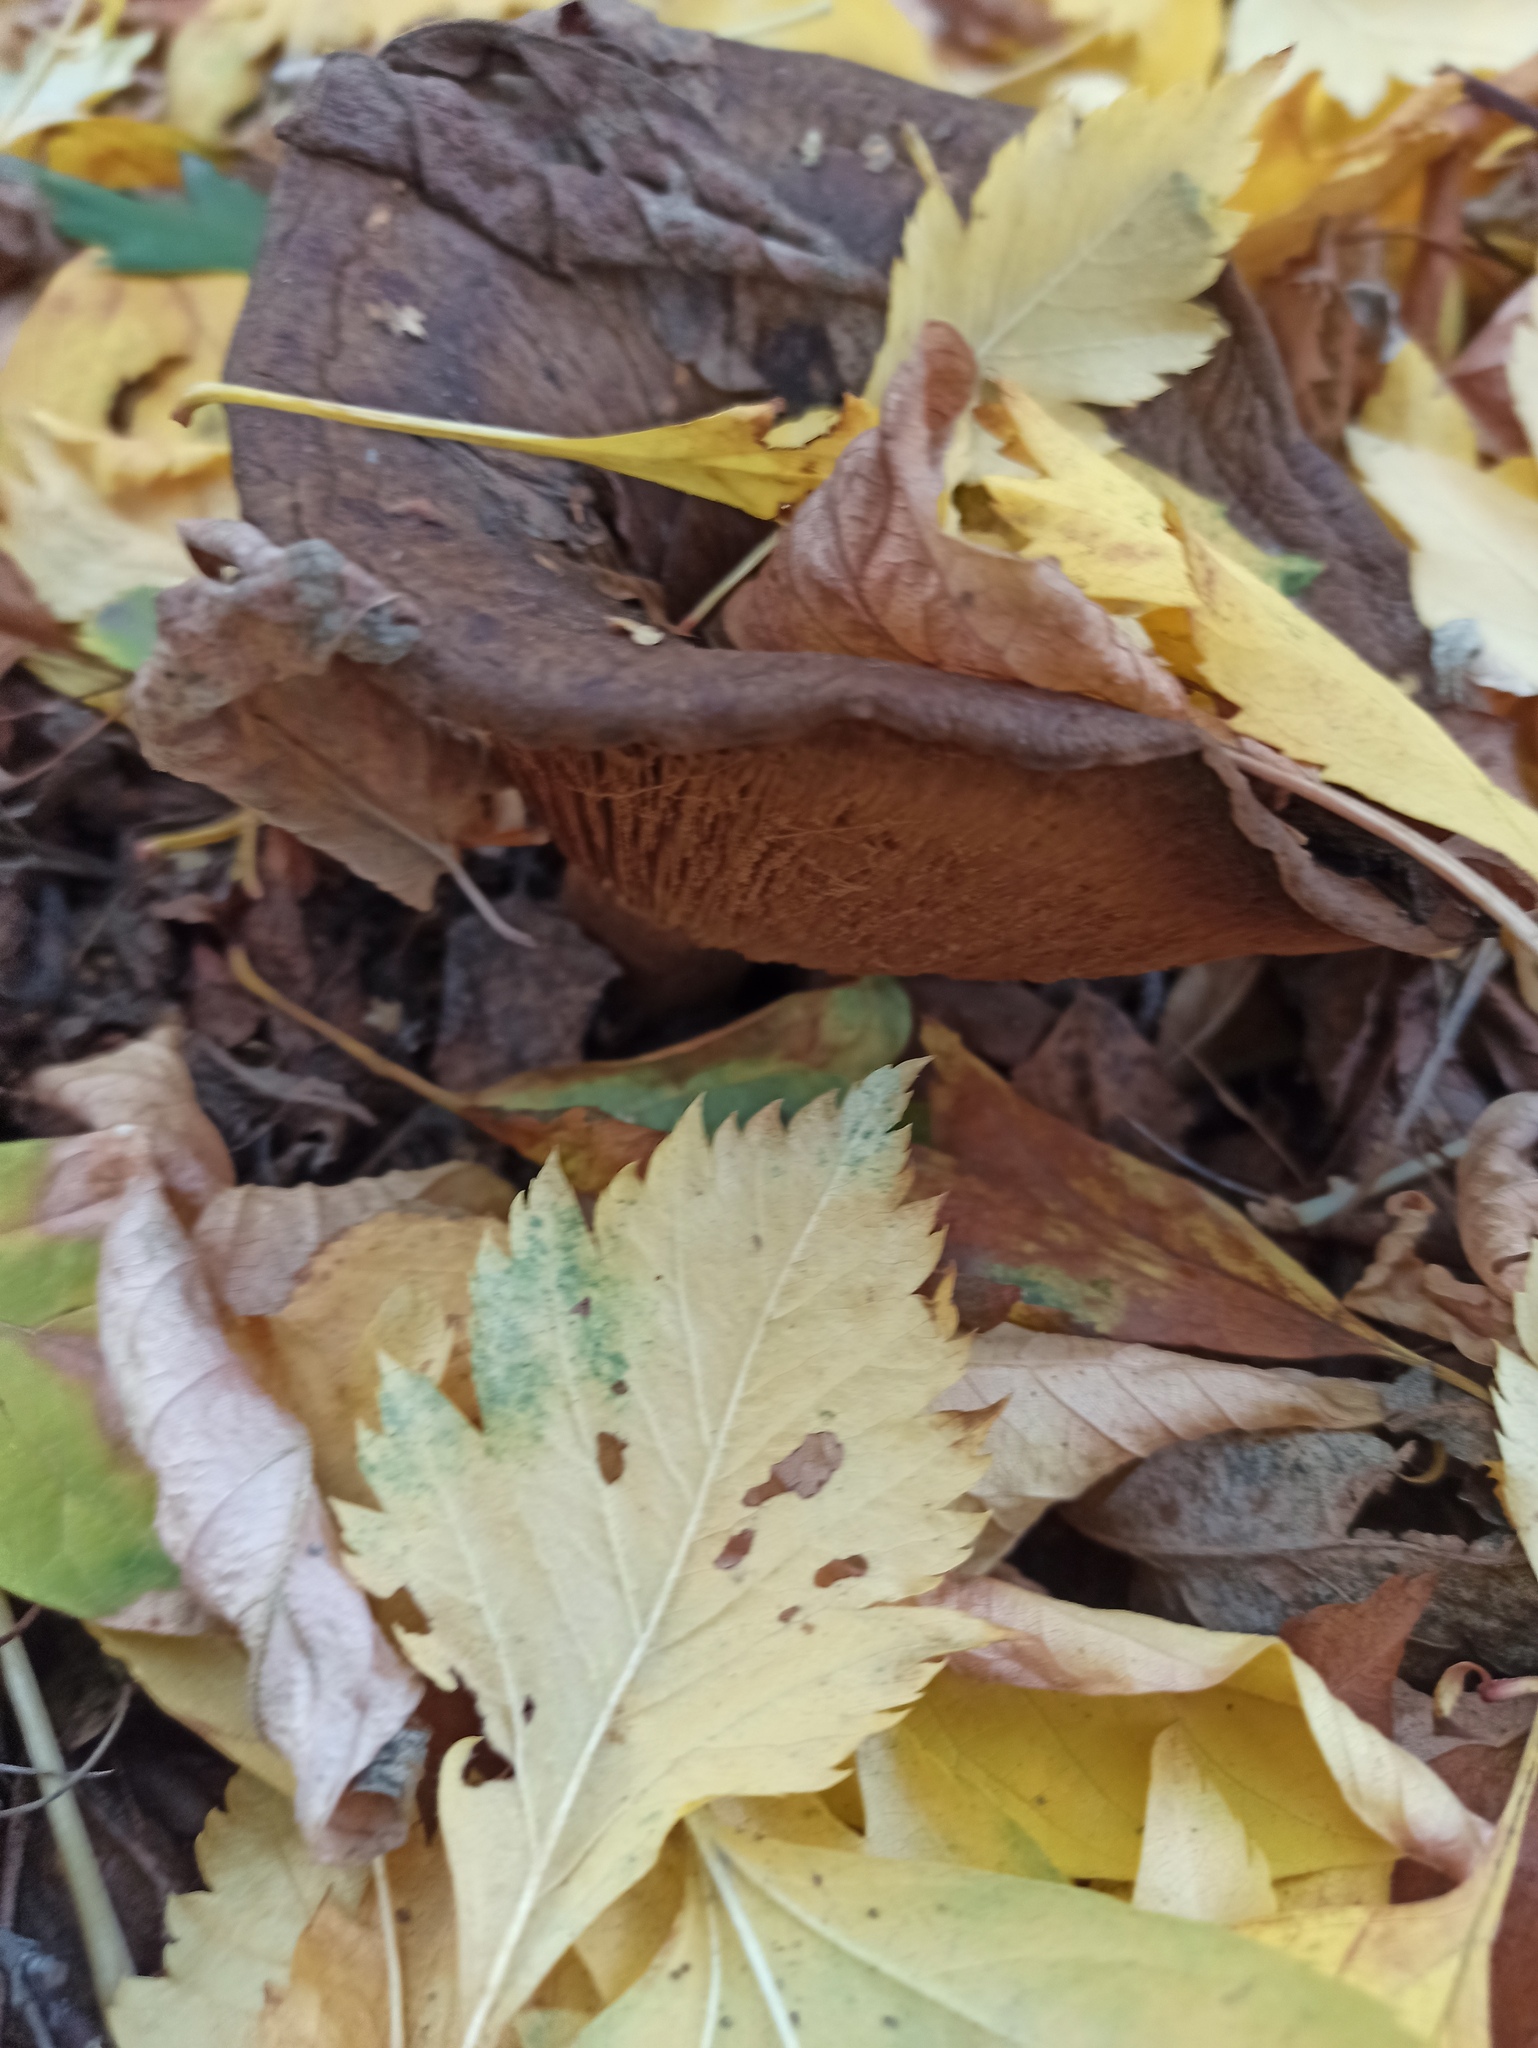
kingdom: Fungi
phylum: Basidiomycota
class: Agaricomycetes
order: Boletales
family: Paxillaceae
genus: Paxillus
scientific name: Paxillus involutus
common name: Brown roll rim
